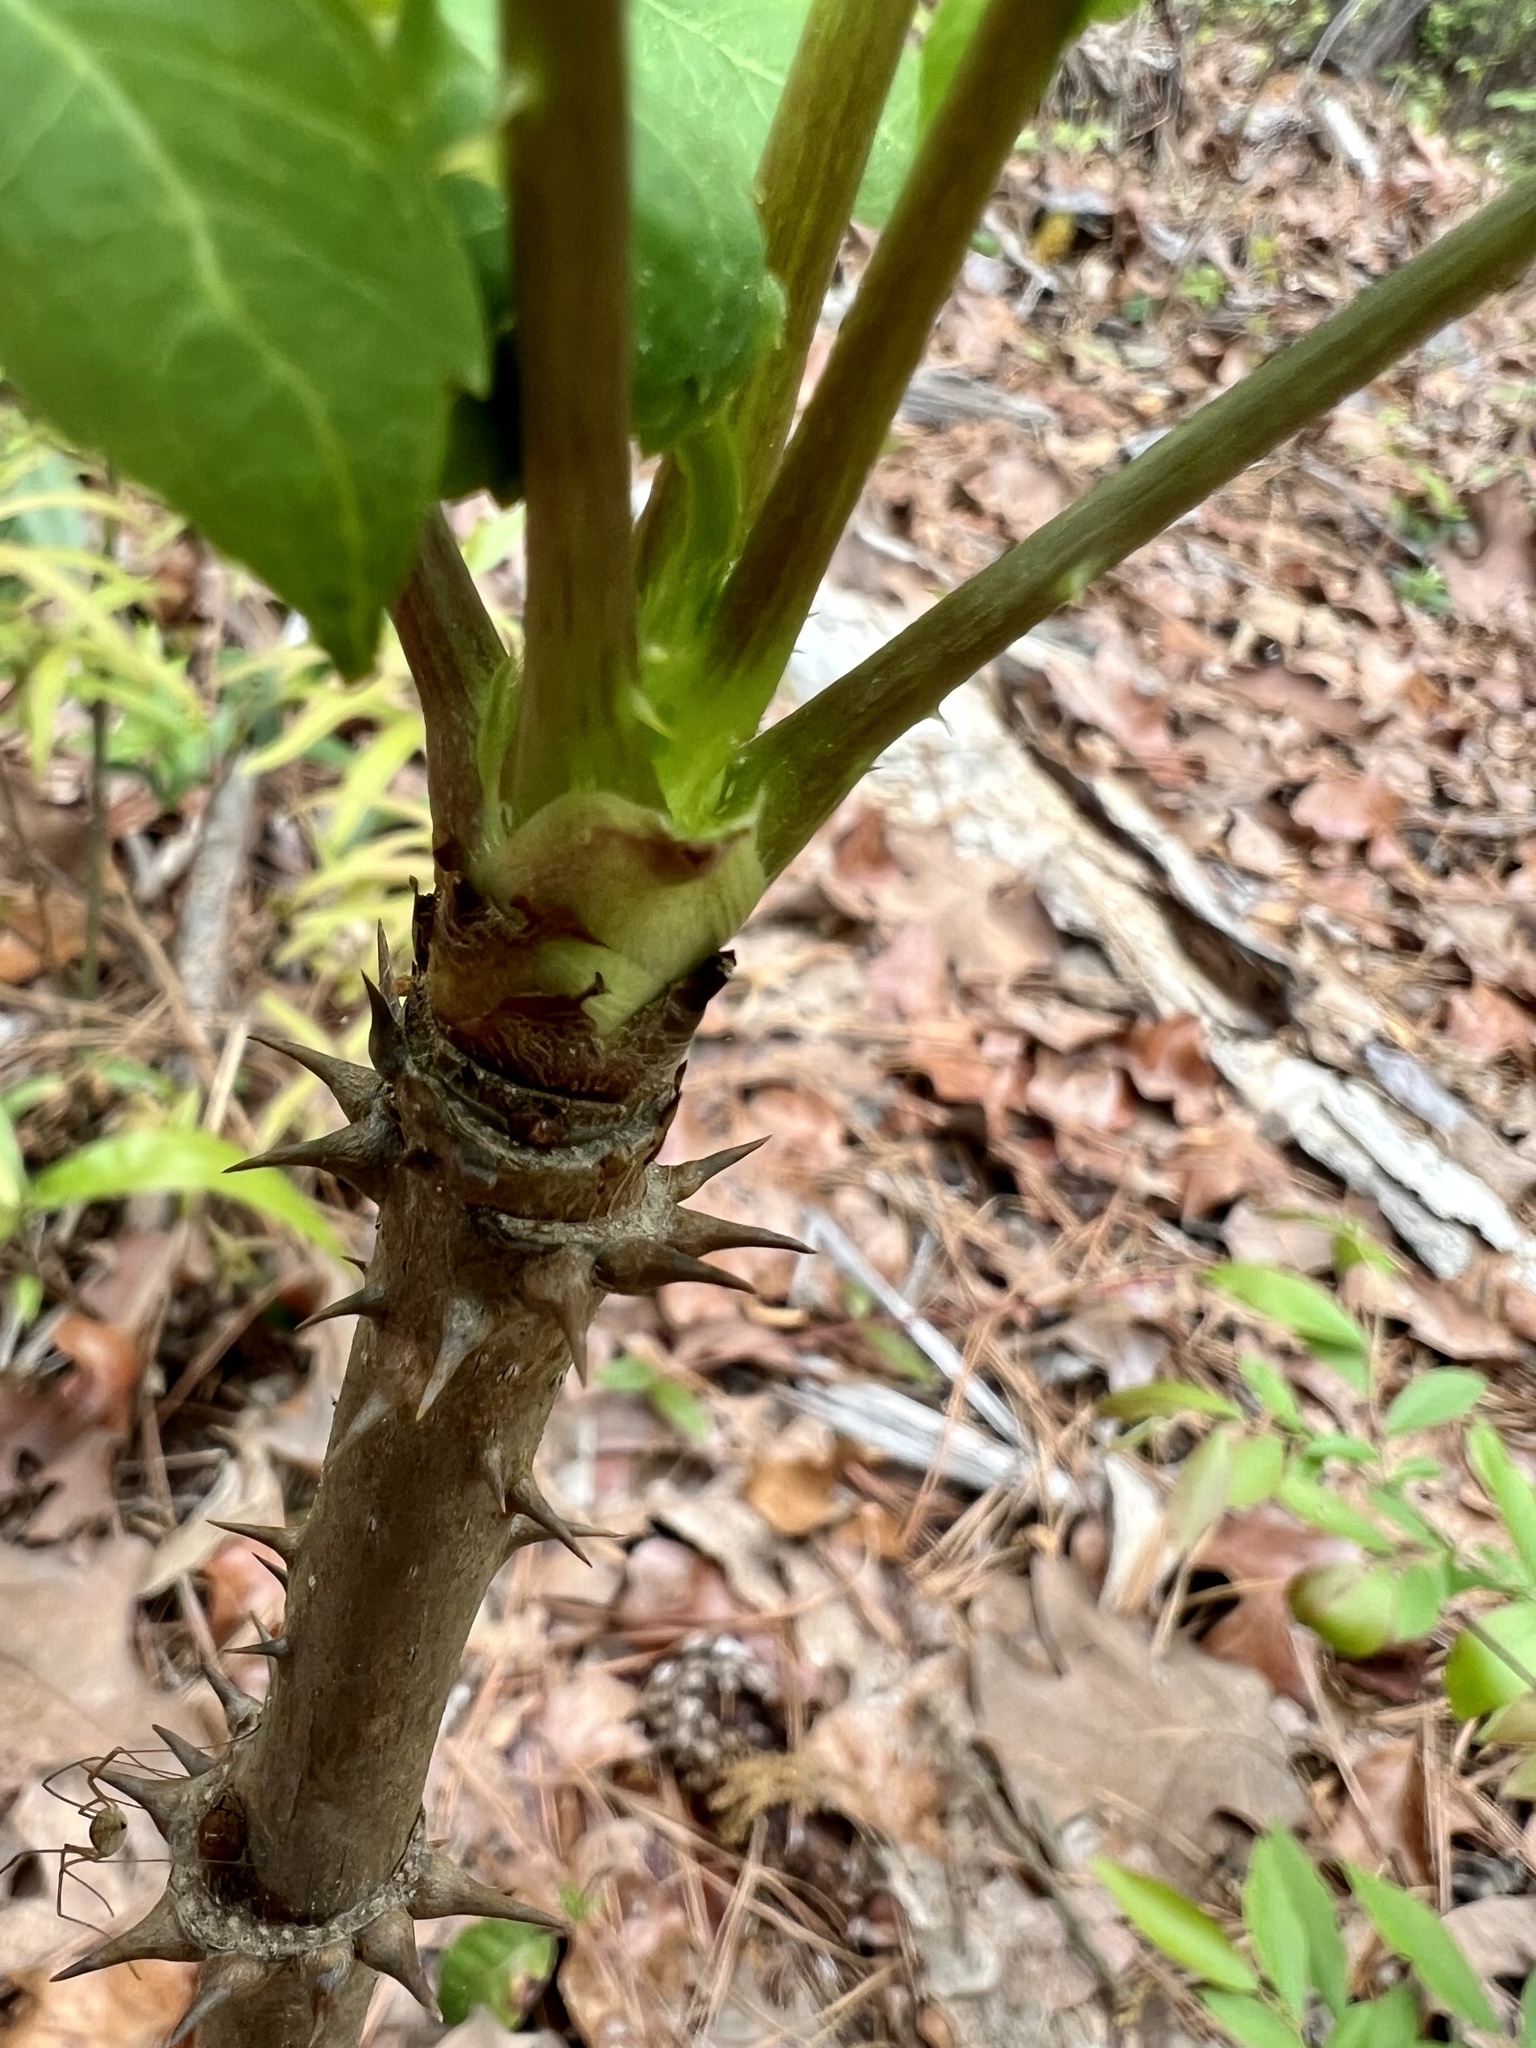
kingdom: Plantae
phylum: Tracheophyta
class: Magnoliopsida
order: Apiales
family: Araliaceae
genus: Aralia
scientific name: Aralia spinosa
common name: Hercules'-club
